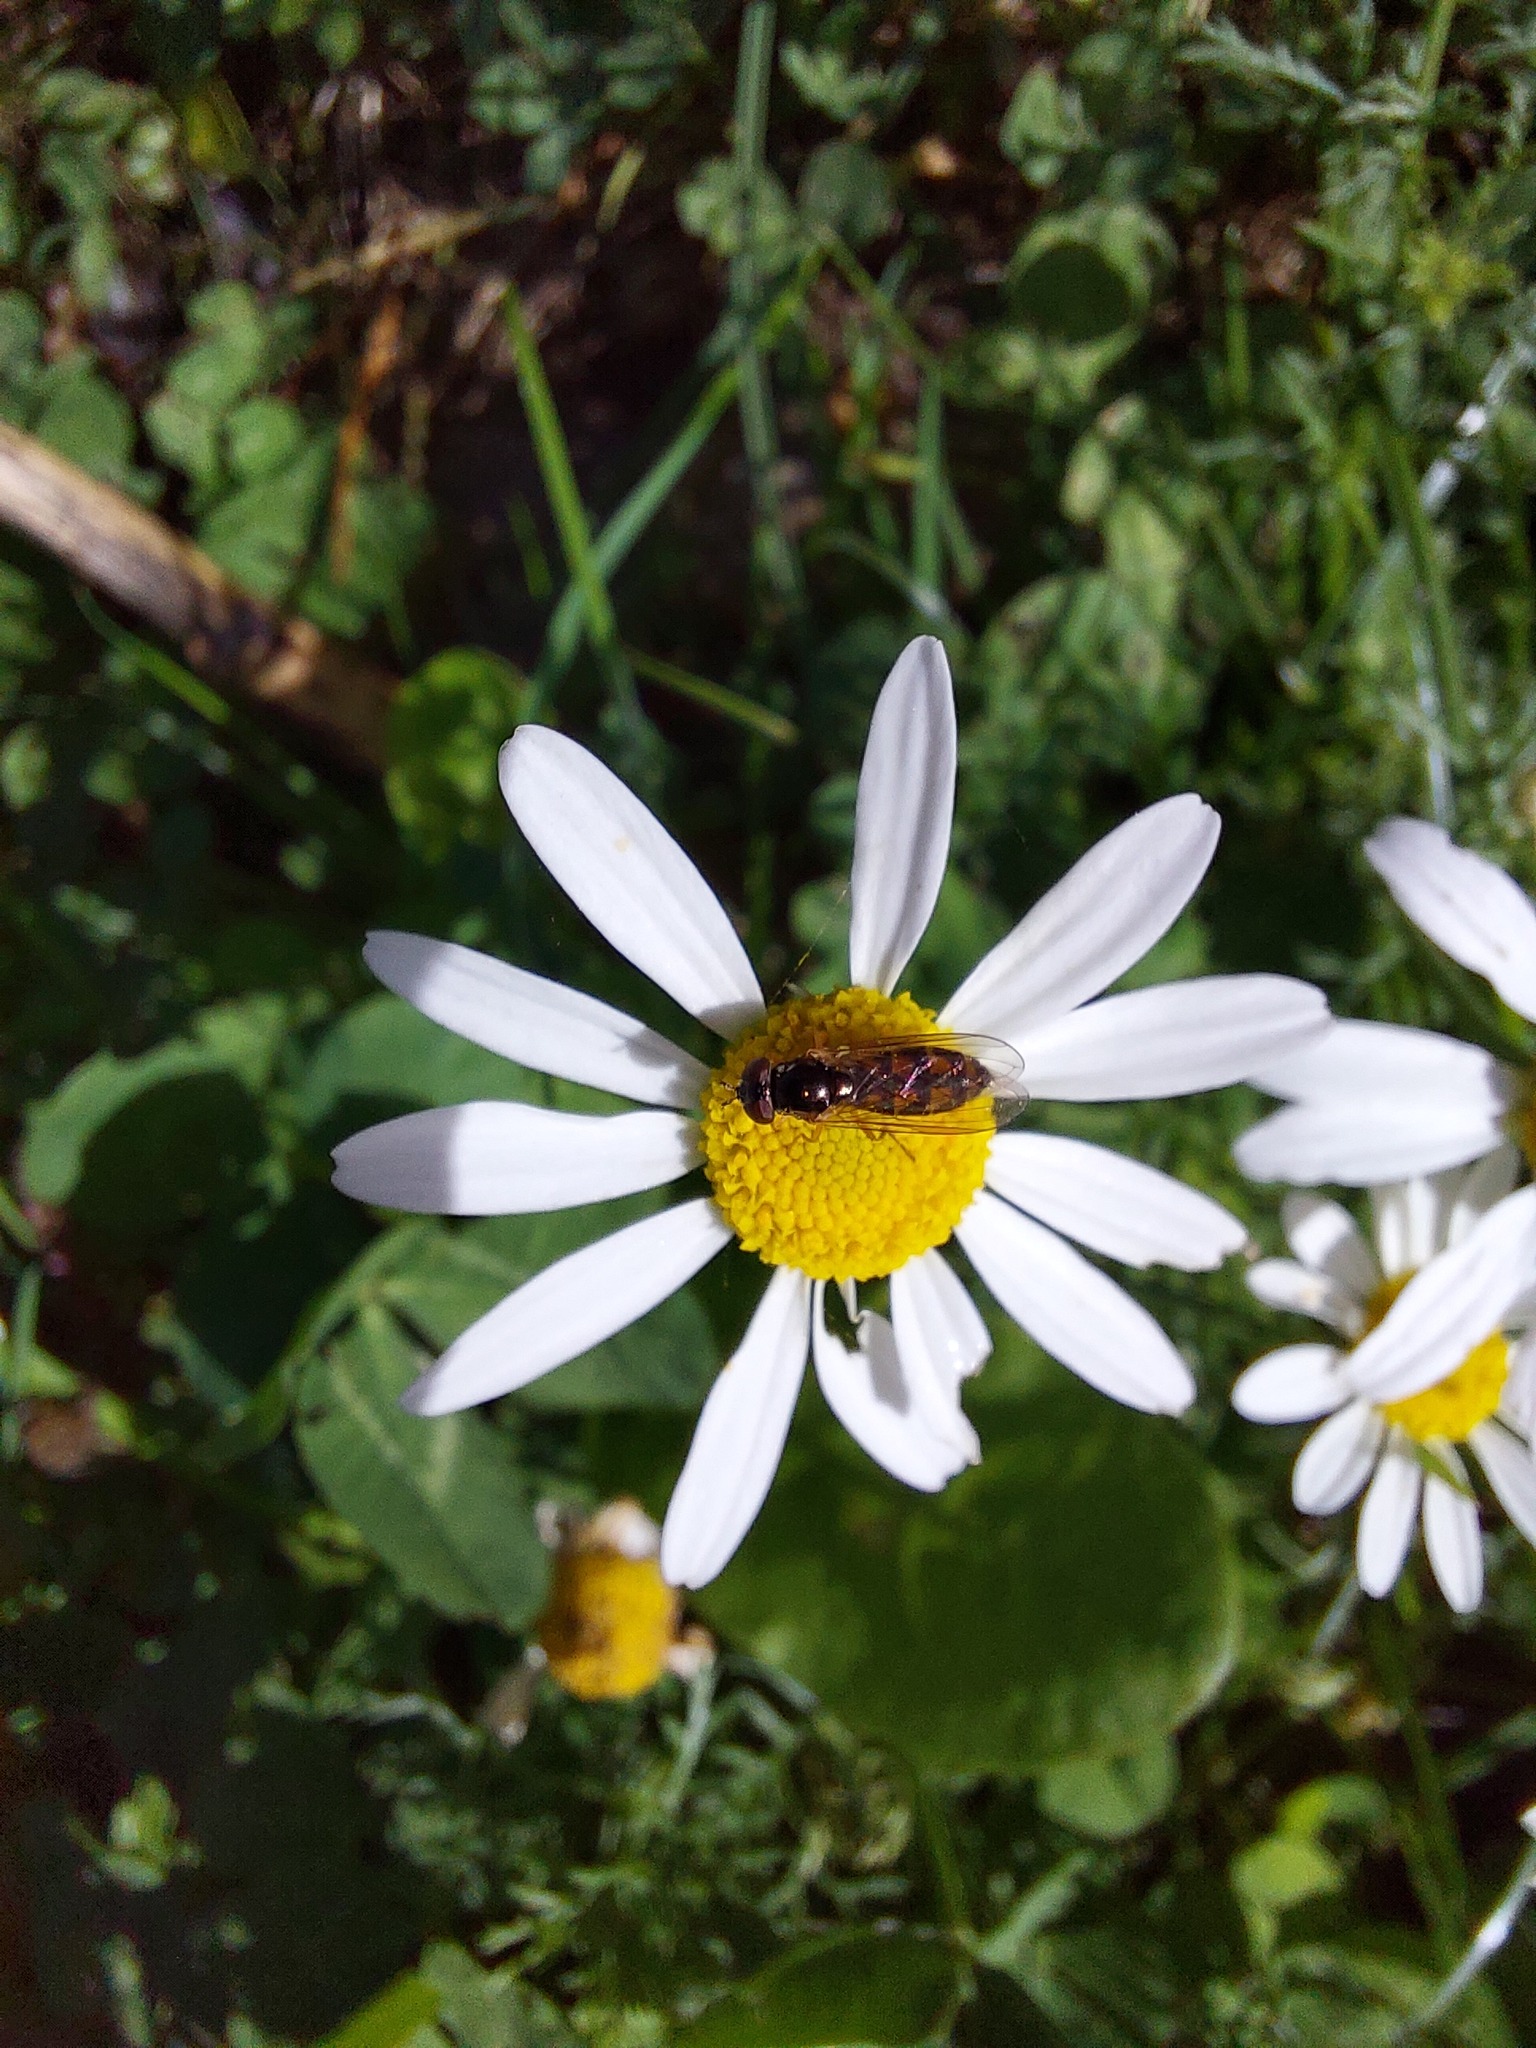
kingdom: Animalia
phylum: Arthropoda
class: Insecta
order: Diptera
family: Syrphidae
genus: Melanostoma
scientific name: Melanostoma fasciatum
